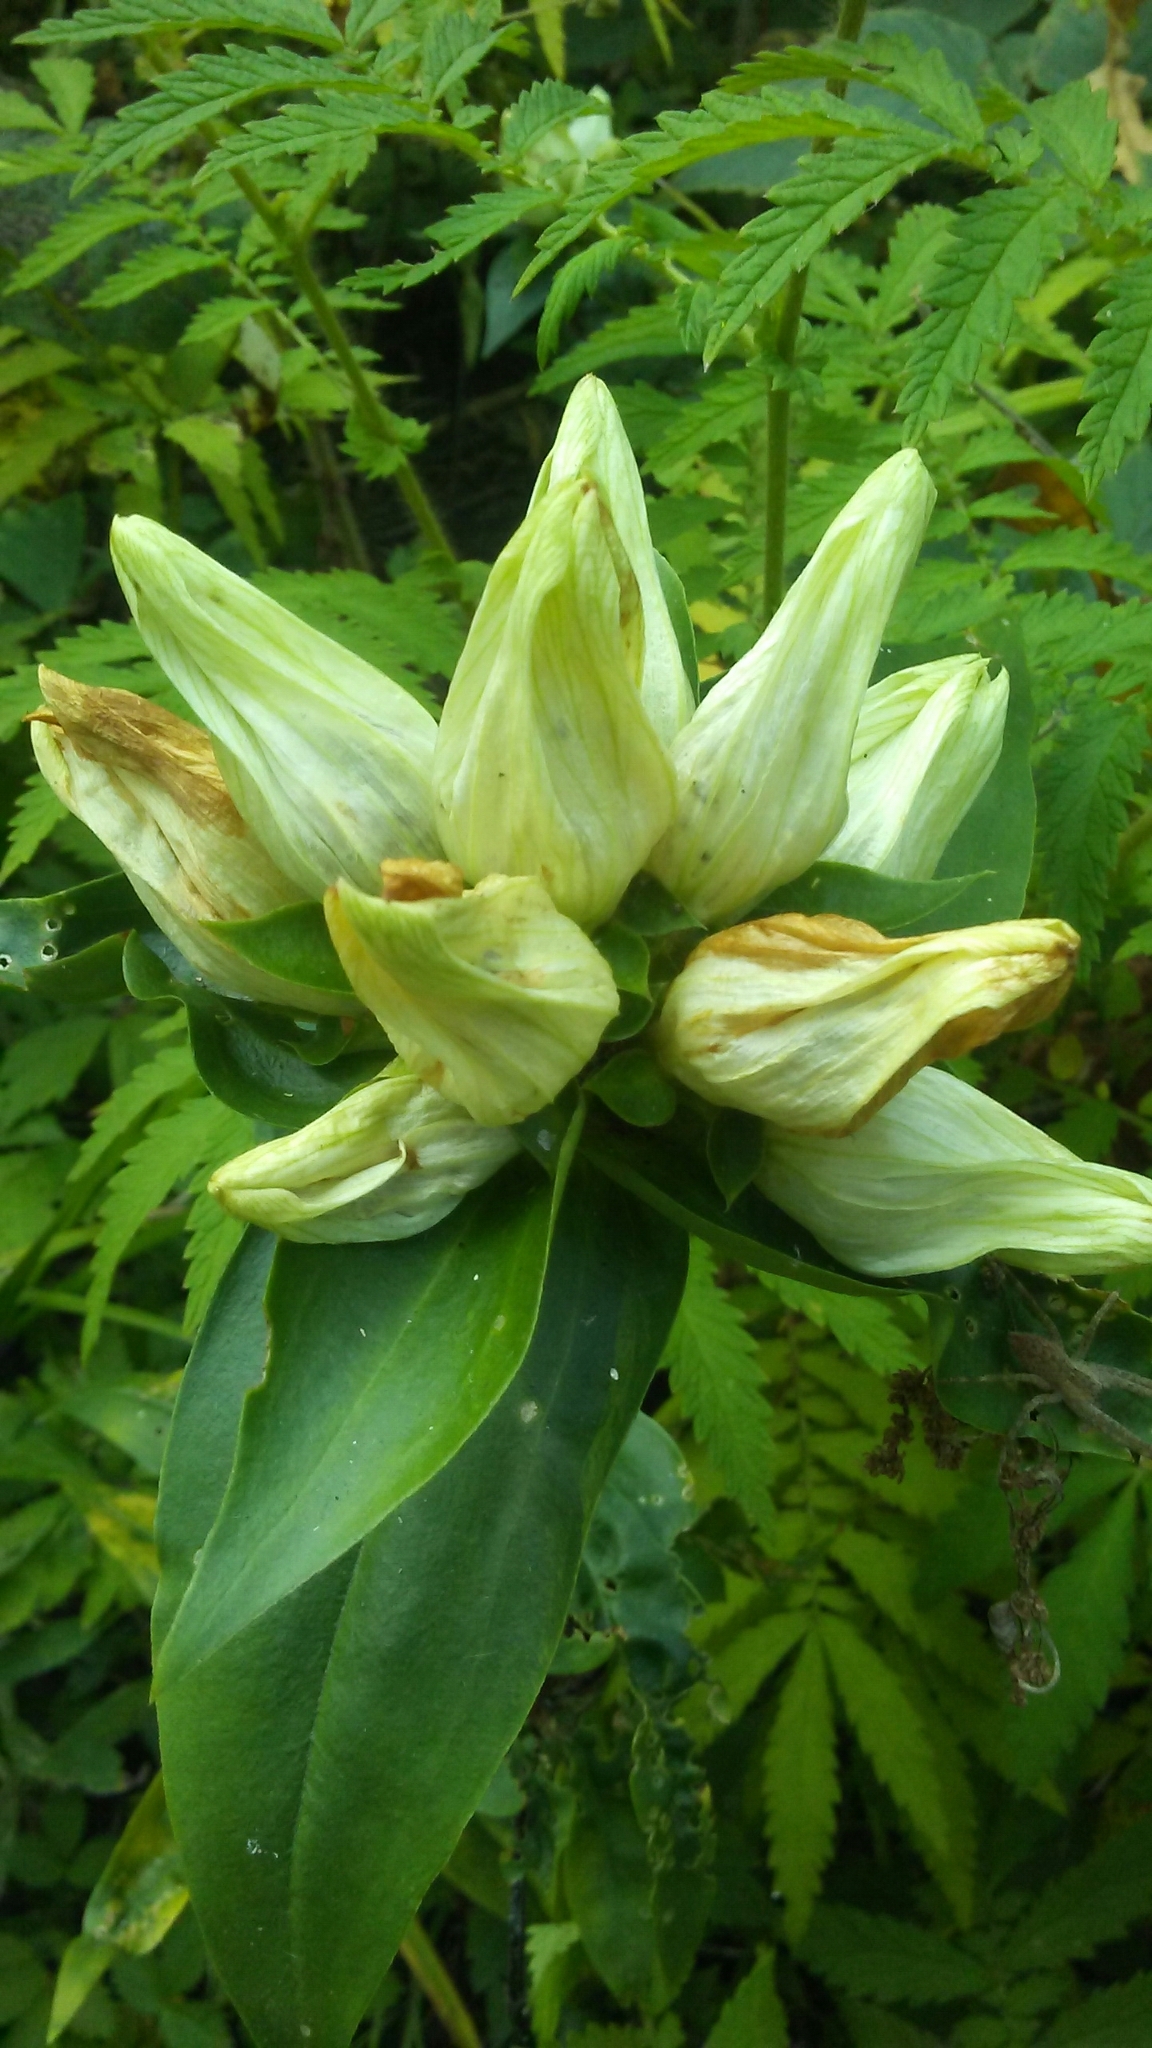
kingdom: Plantae
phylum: Tracheophyta
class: Magnoliopsida
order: Gentianales
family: Gentianaceae
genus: Gentiana
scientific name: Gentiana alba
